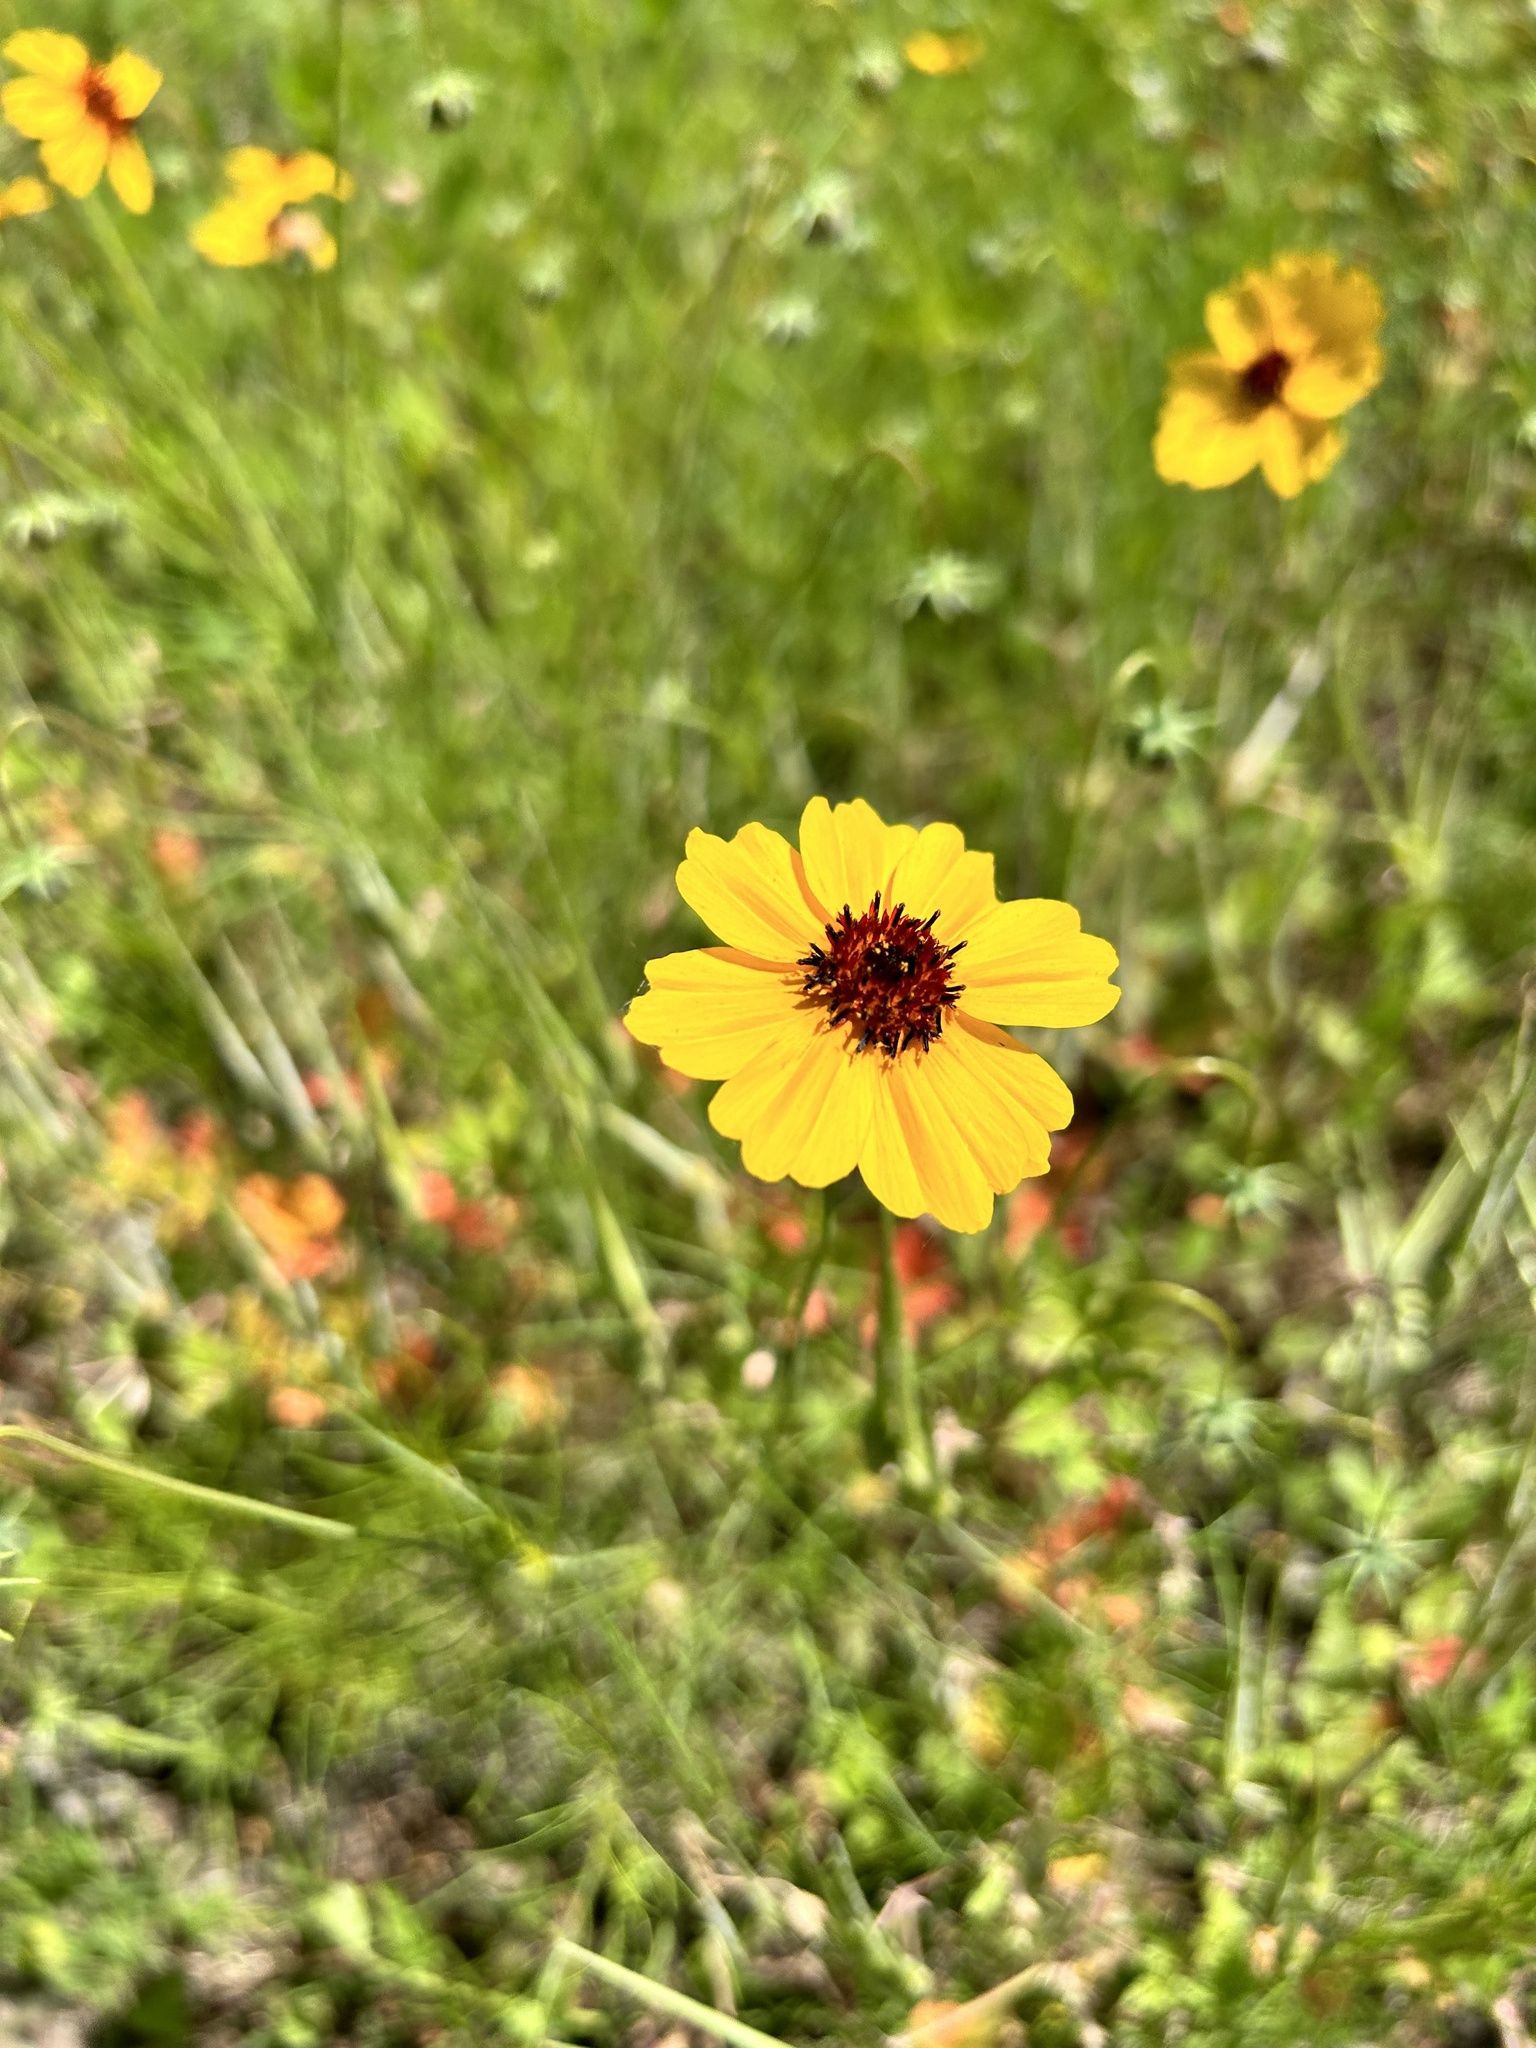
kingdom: Plantae
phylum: Tracheophyta
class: Magnoliopsida
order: Asterales
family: Asteraceae
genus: Thelesperma
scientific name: Thelesperma filifolium
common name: Stiff greenthread
